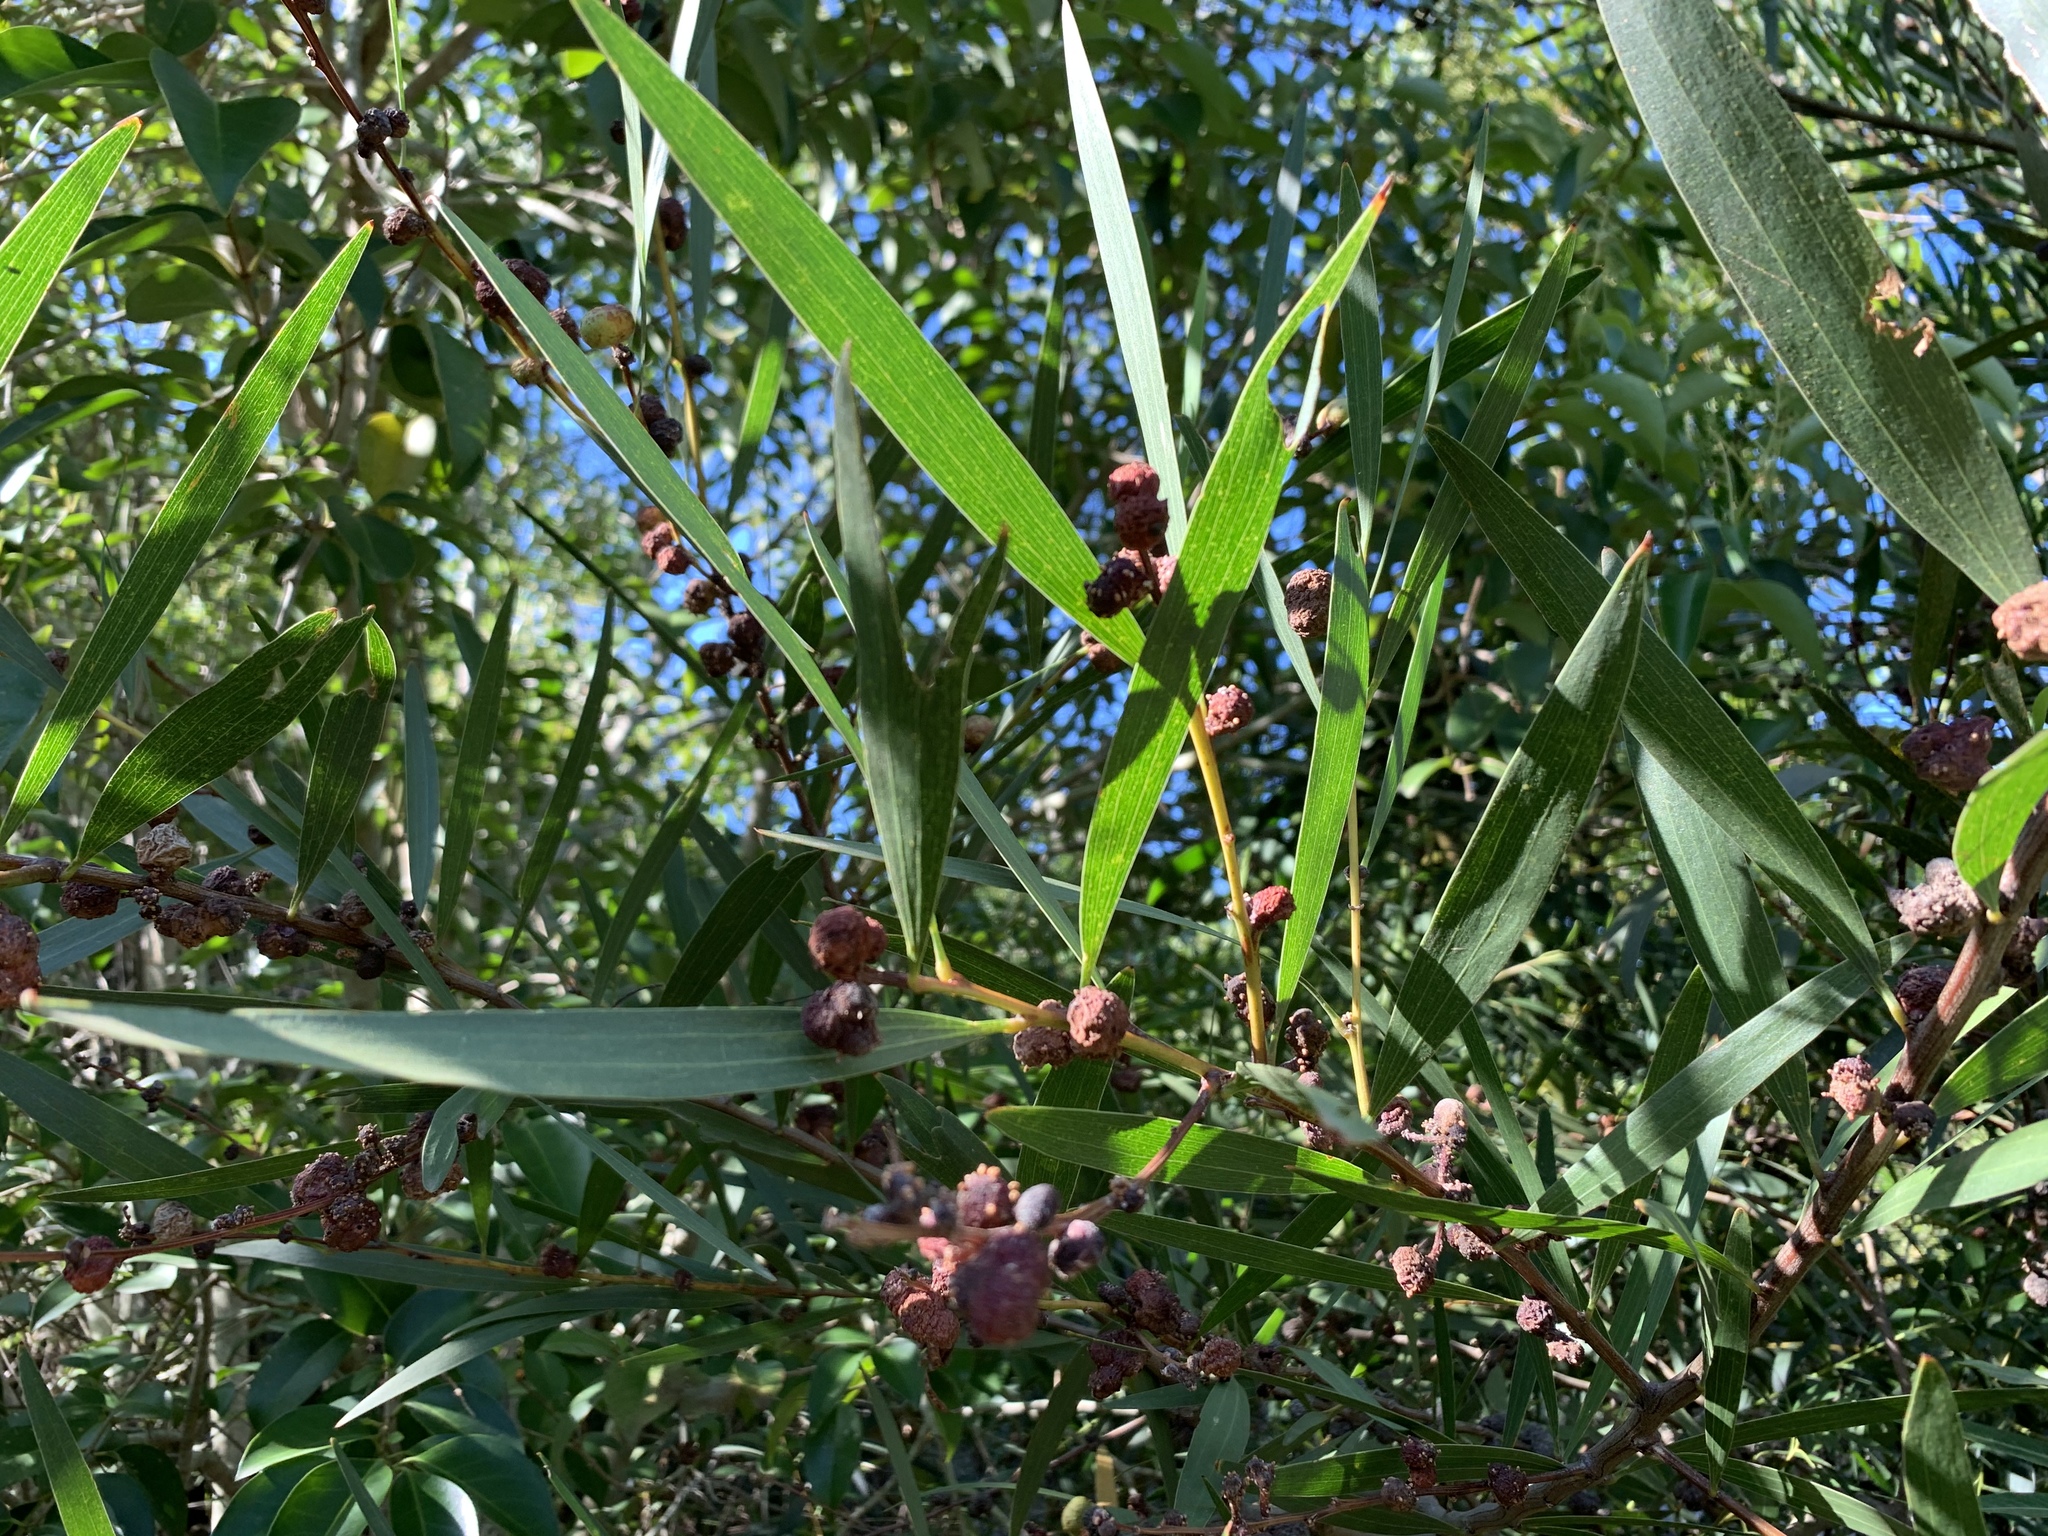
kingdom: Plantae
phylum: Tracheophyta
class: Magnoliopsida
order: Fabales
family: Fabaceae
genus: Acacia
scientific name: Acacia longifolia
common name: Sydney golden wattle
